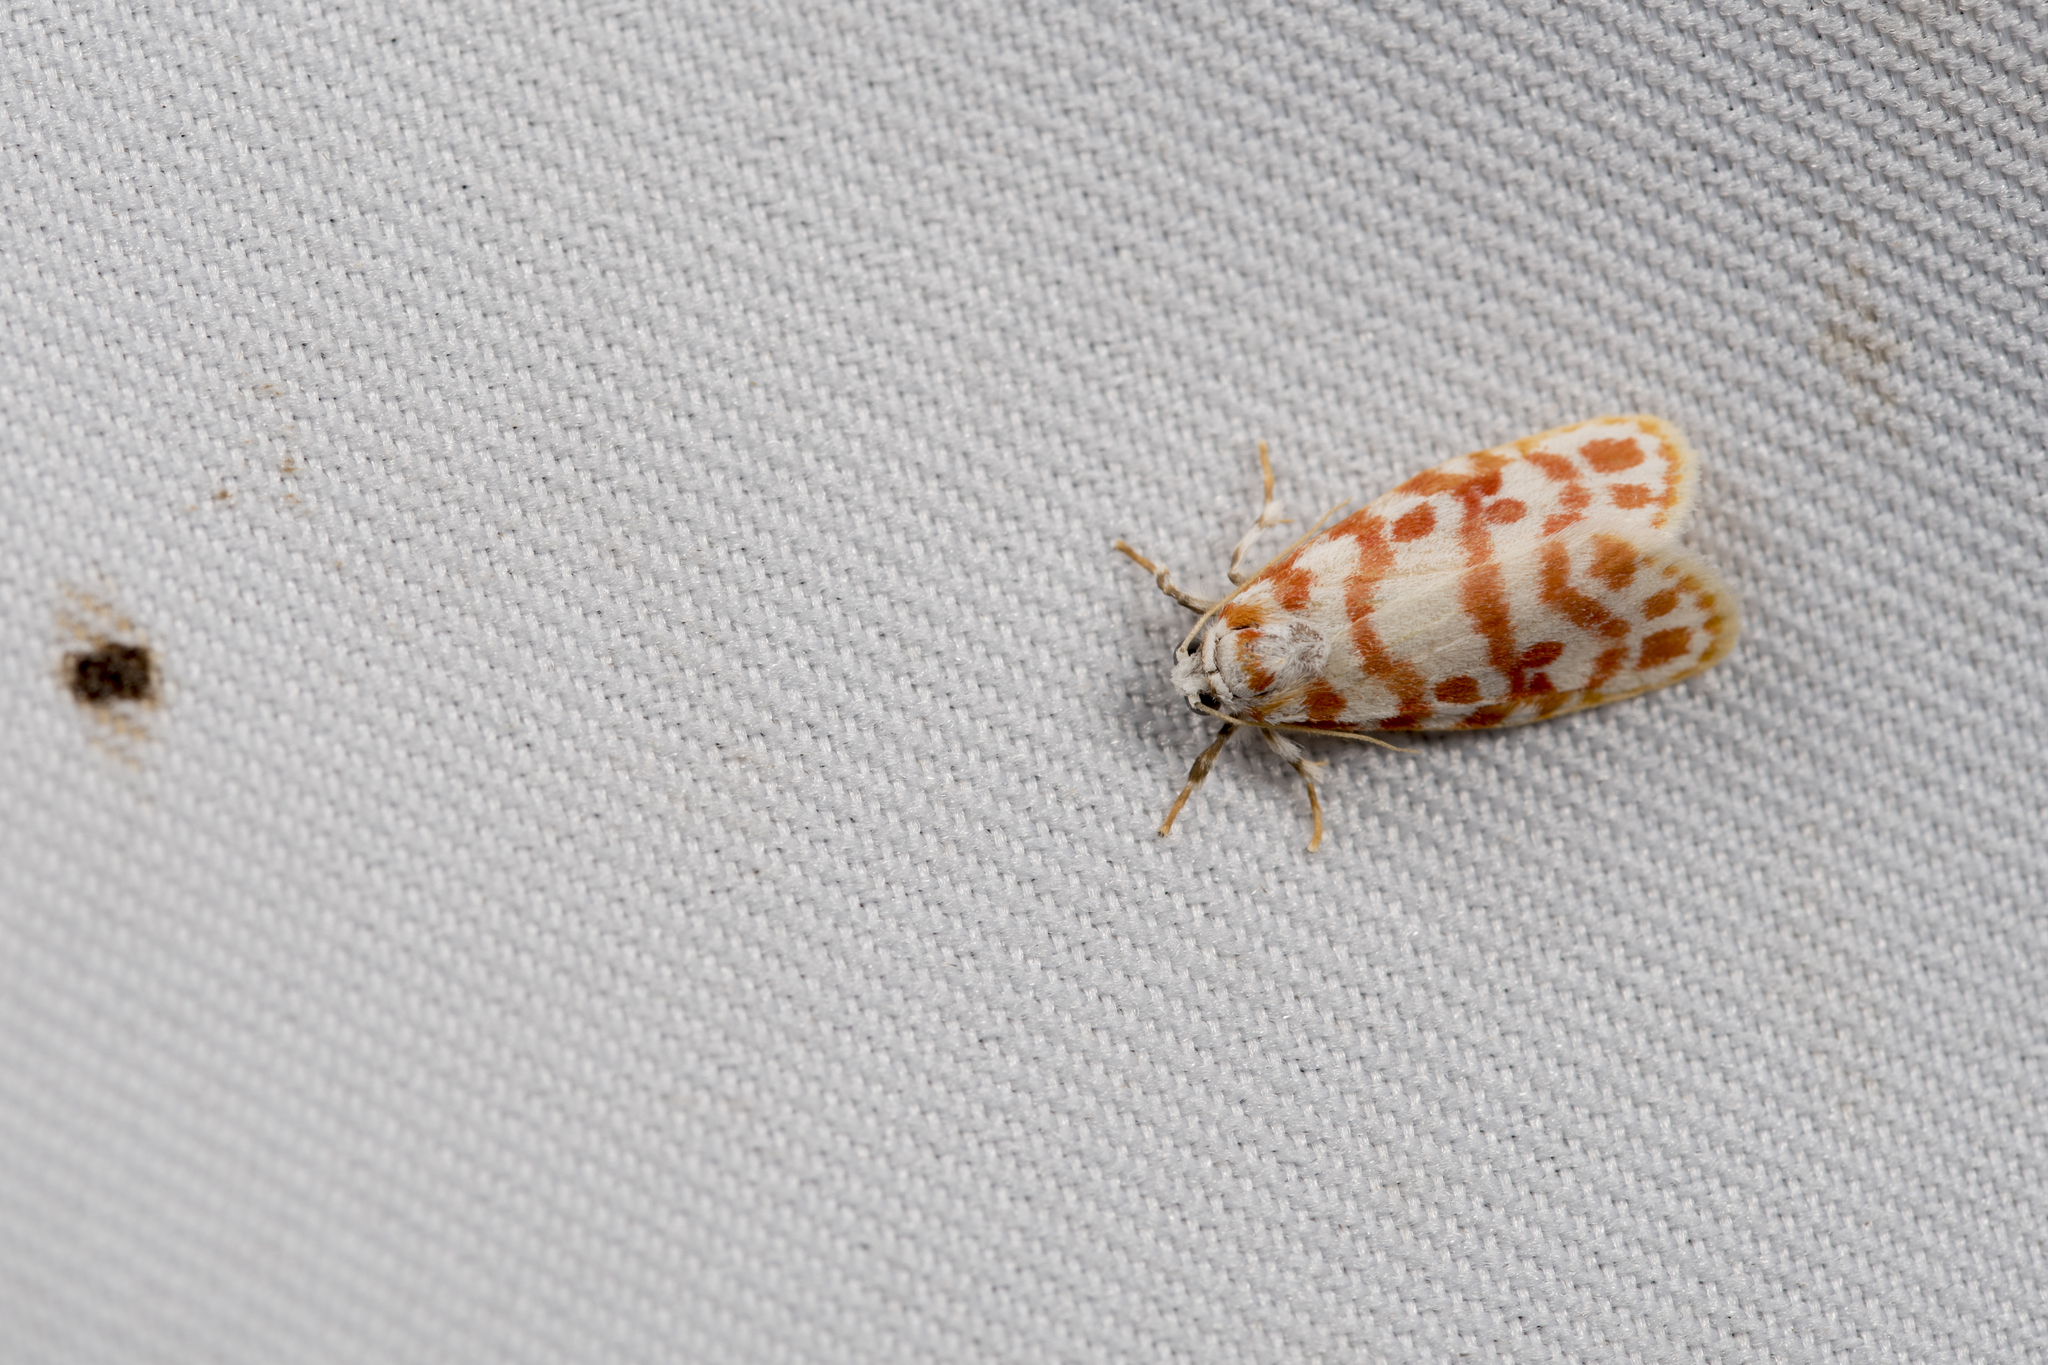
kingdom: Animalia
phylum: Arthropoda
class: Insecta
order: Lepidoptera
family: Erebidae
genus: Nephelomilta
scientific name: Nephelomilta effracta
